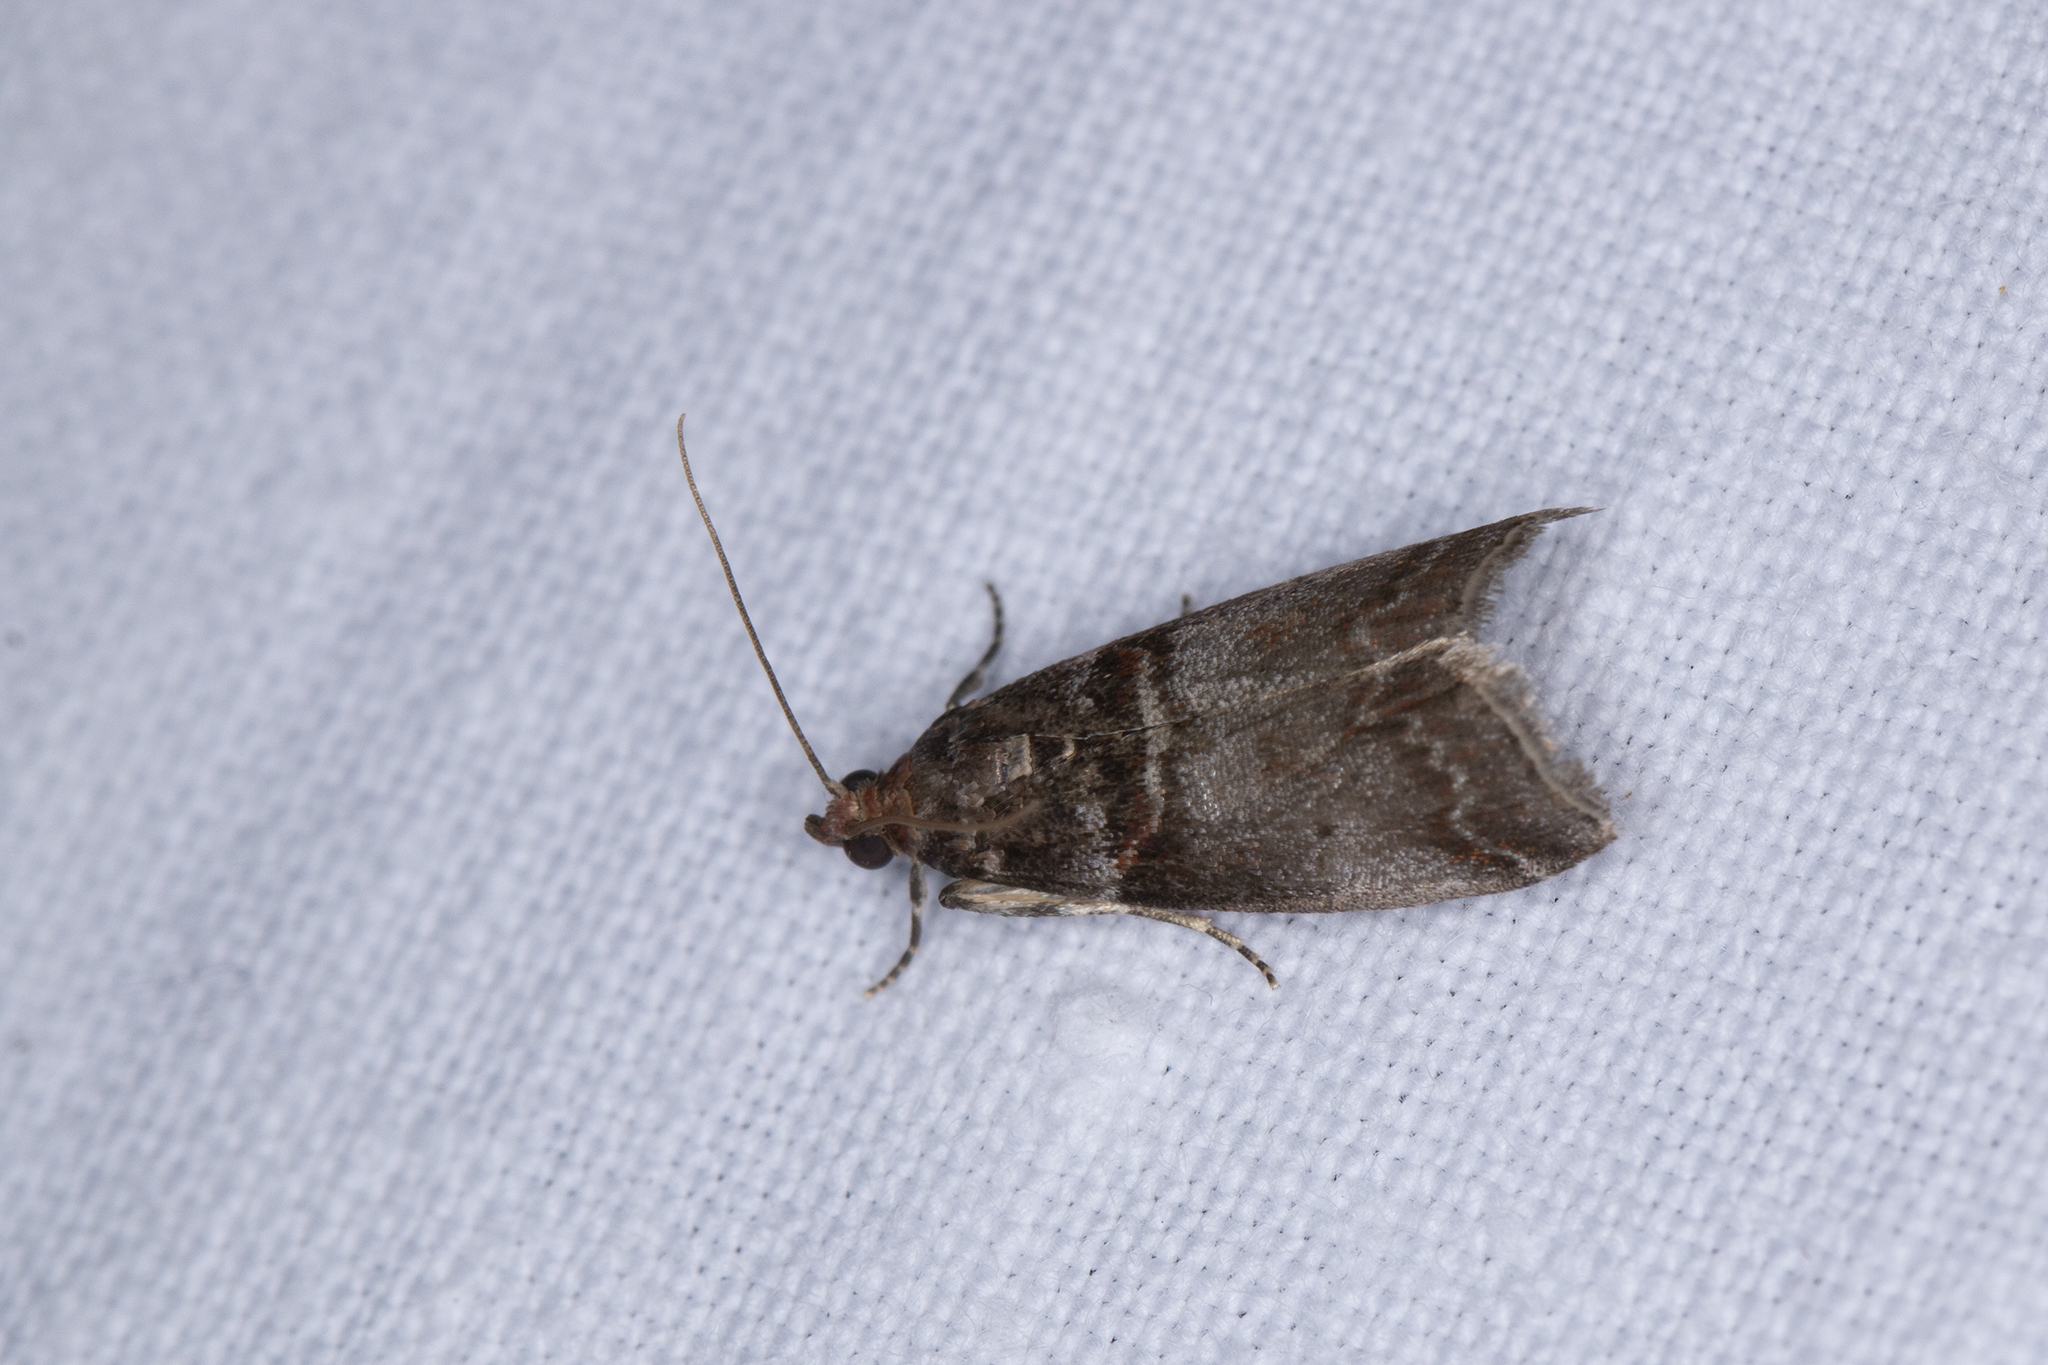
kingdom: Animalia
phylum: Arthropoda
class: Insecta
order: Lepidoptera
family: Pyralidae
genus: Acrobasis
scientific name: Acrobasis advenella
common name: Grey knot-horn
